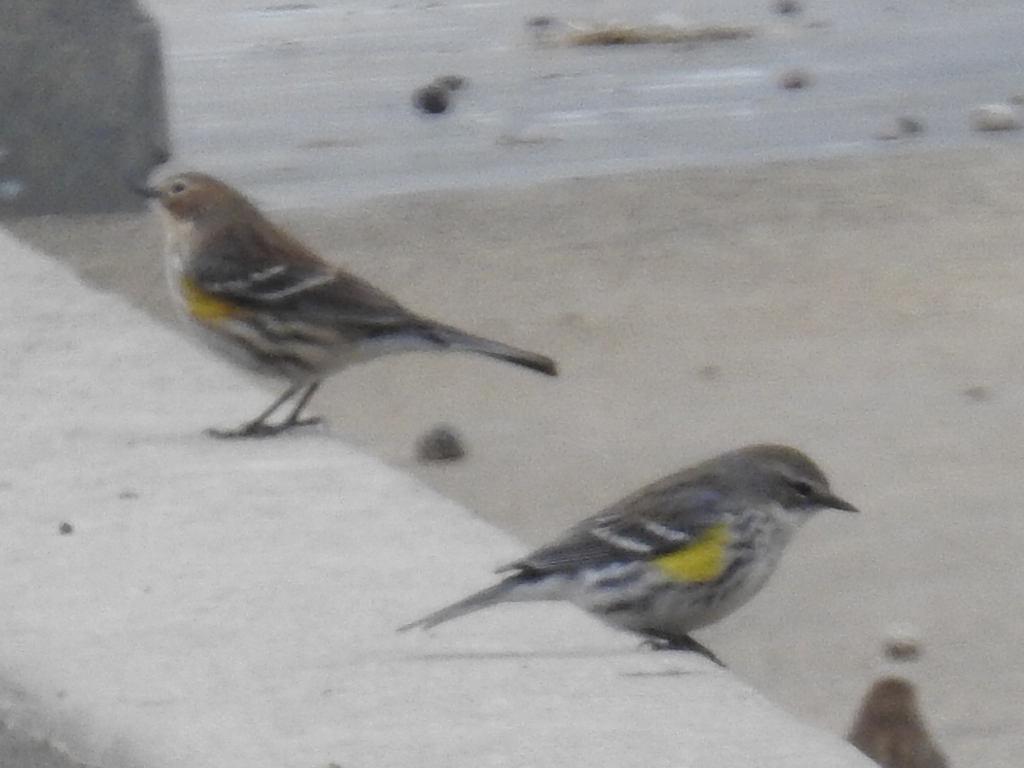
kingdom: Animalia
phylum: Chordata
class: Aves
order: Passeriformes
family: Parulidae
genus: Setophaga
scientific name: Setophaga coronata
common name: Myrtle warbler
